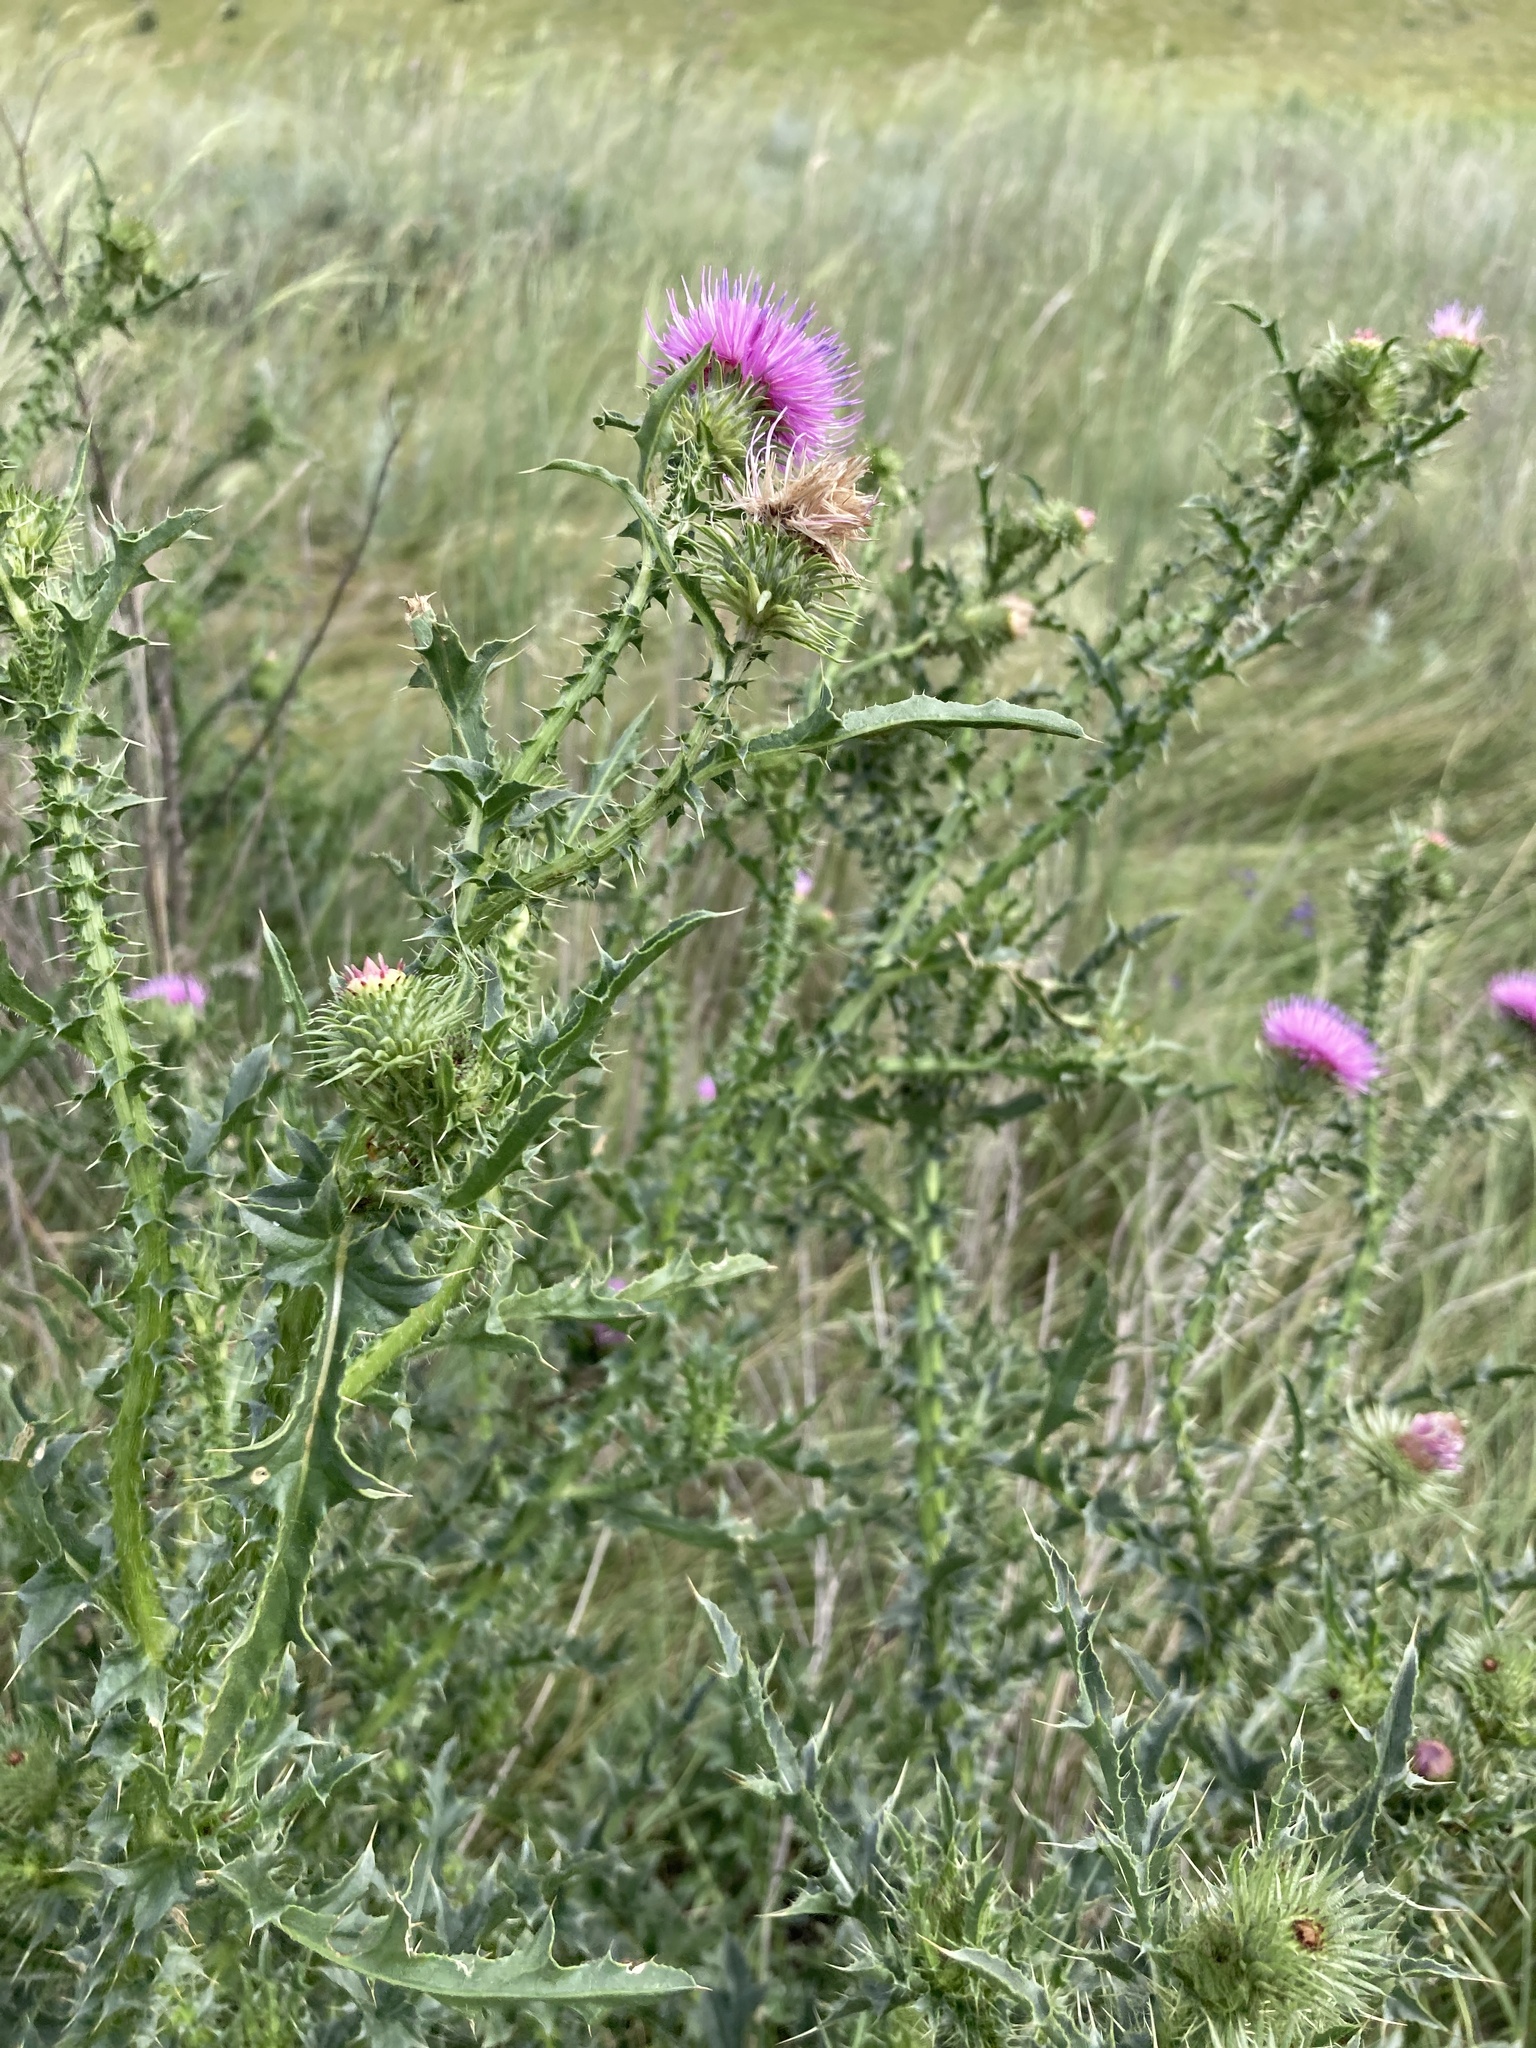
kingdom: Plantae
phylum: Tracheophyta
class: Magnoliopsida
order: Asterales
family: Asteraceae
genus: Carduus
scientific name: Carduus acanthoides
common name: Plumeless thistle
